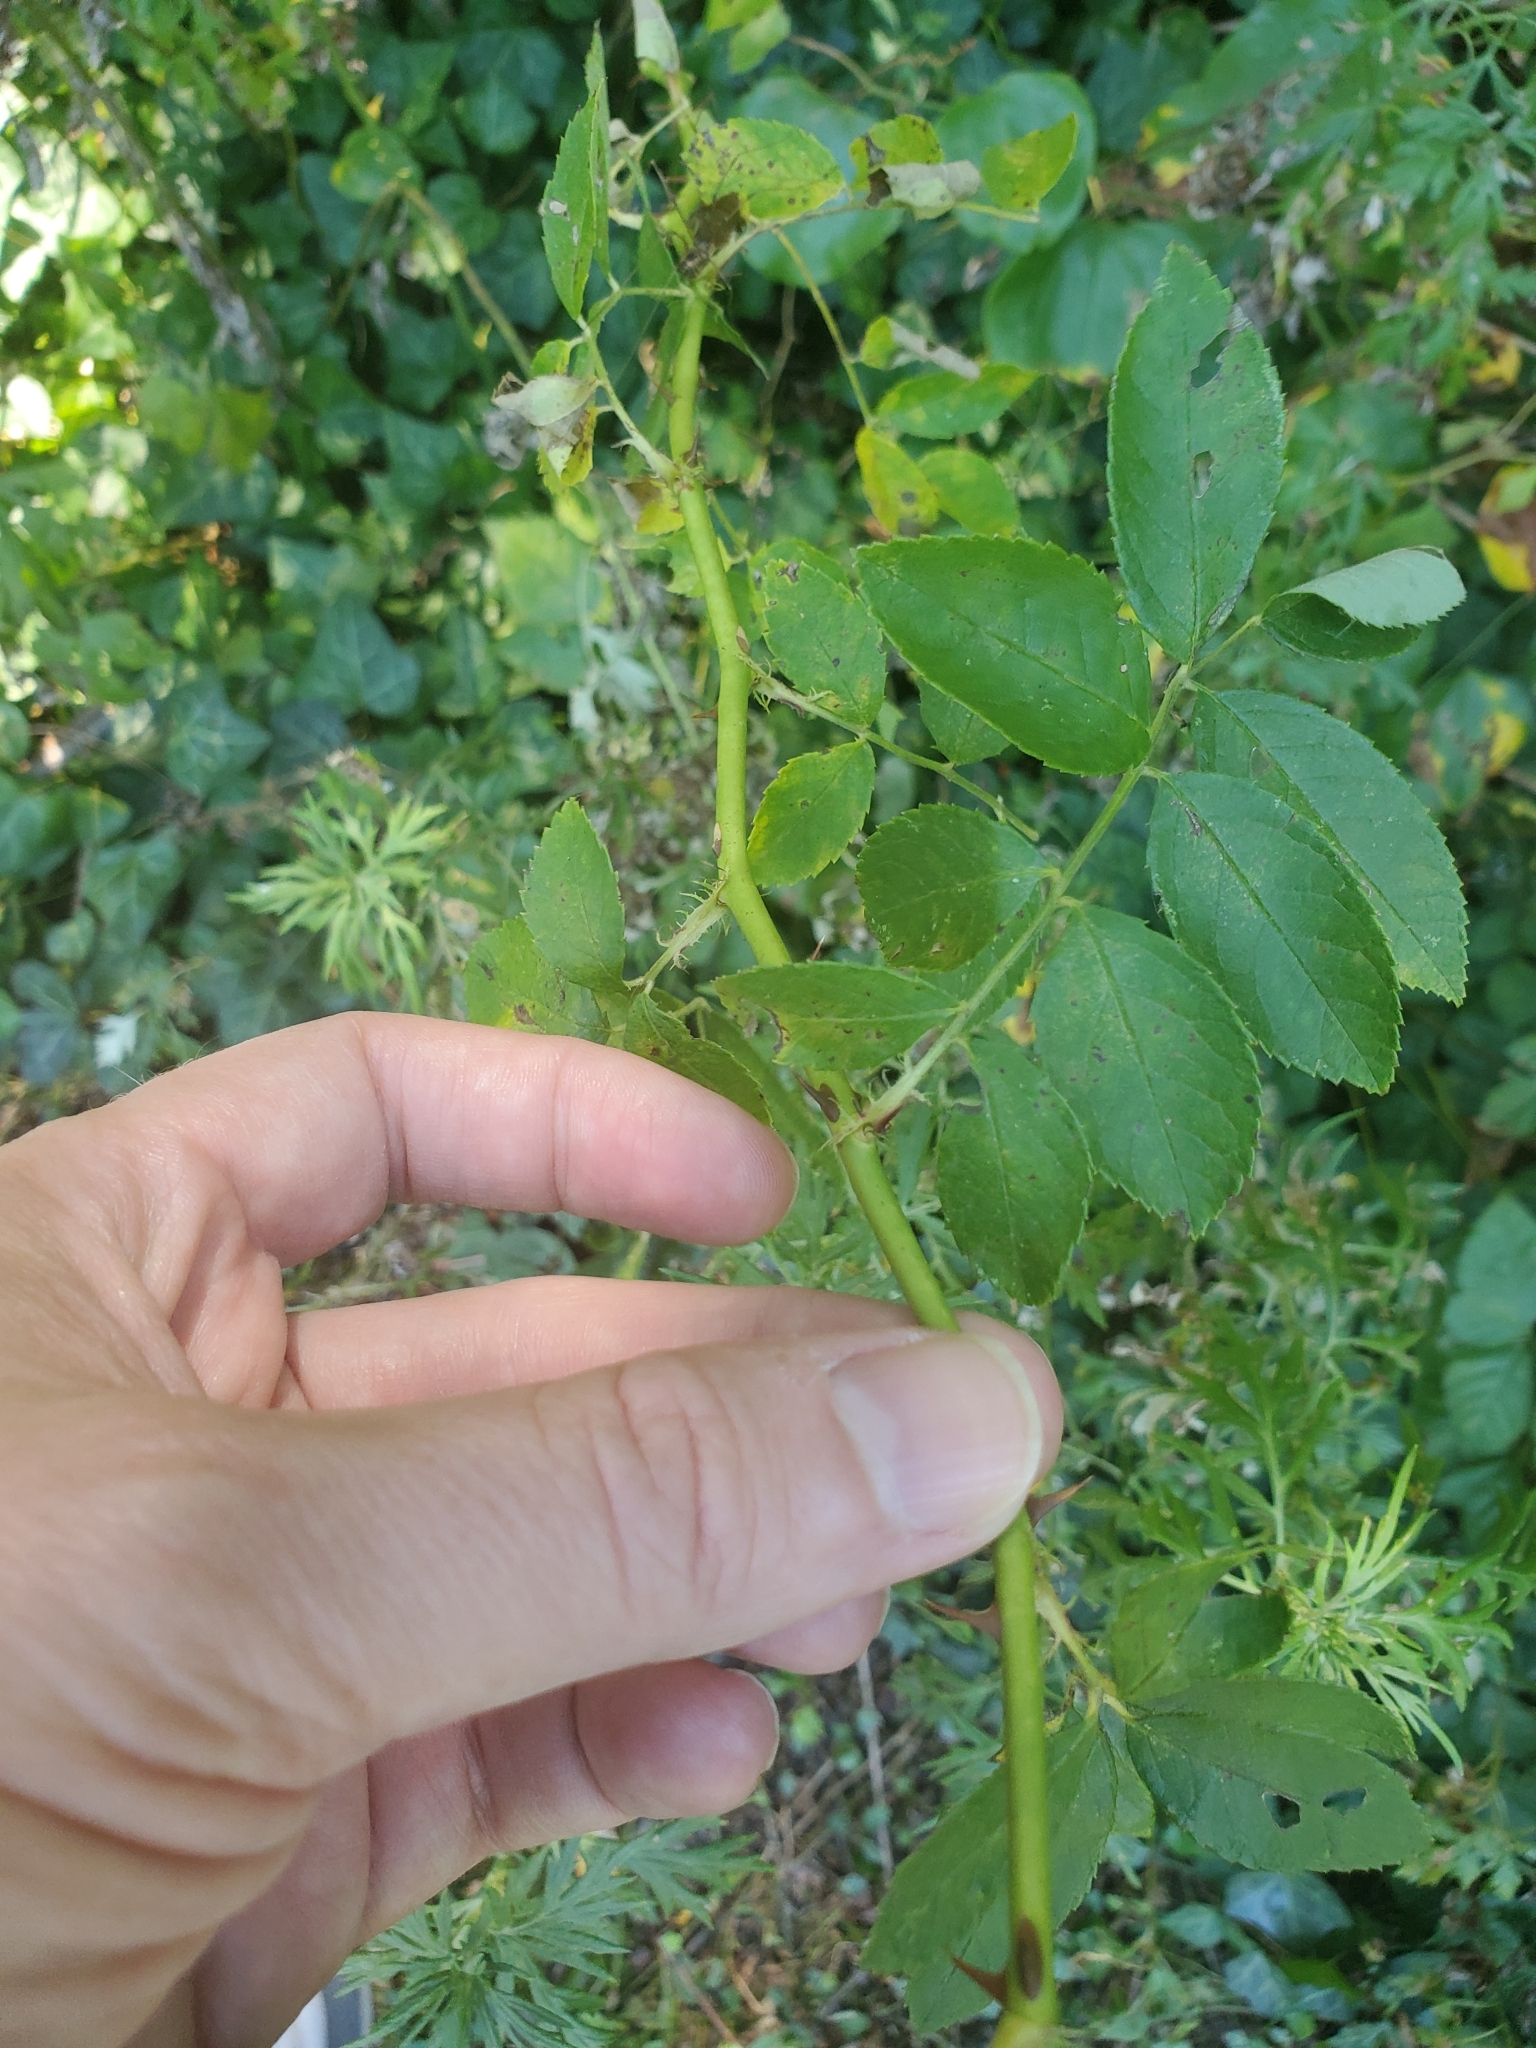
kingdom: Plantae
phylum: Tracheophyta
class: Magnoliopsida
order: Rosales
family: Rosaceae
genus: Rosa
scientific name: Rosa multiflora
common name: Multiflora rose
